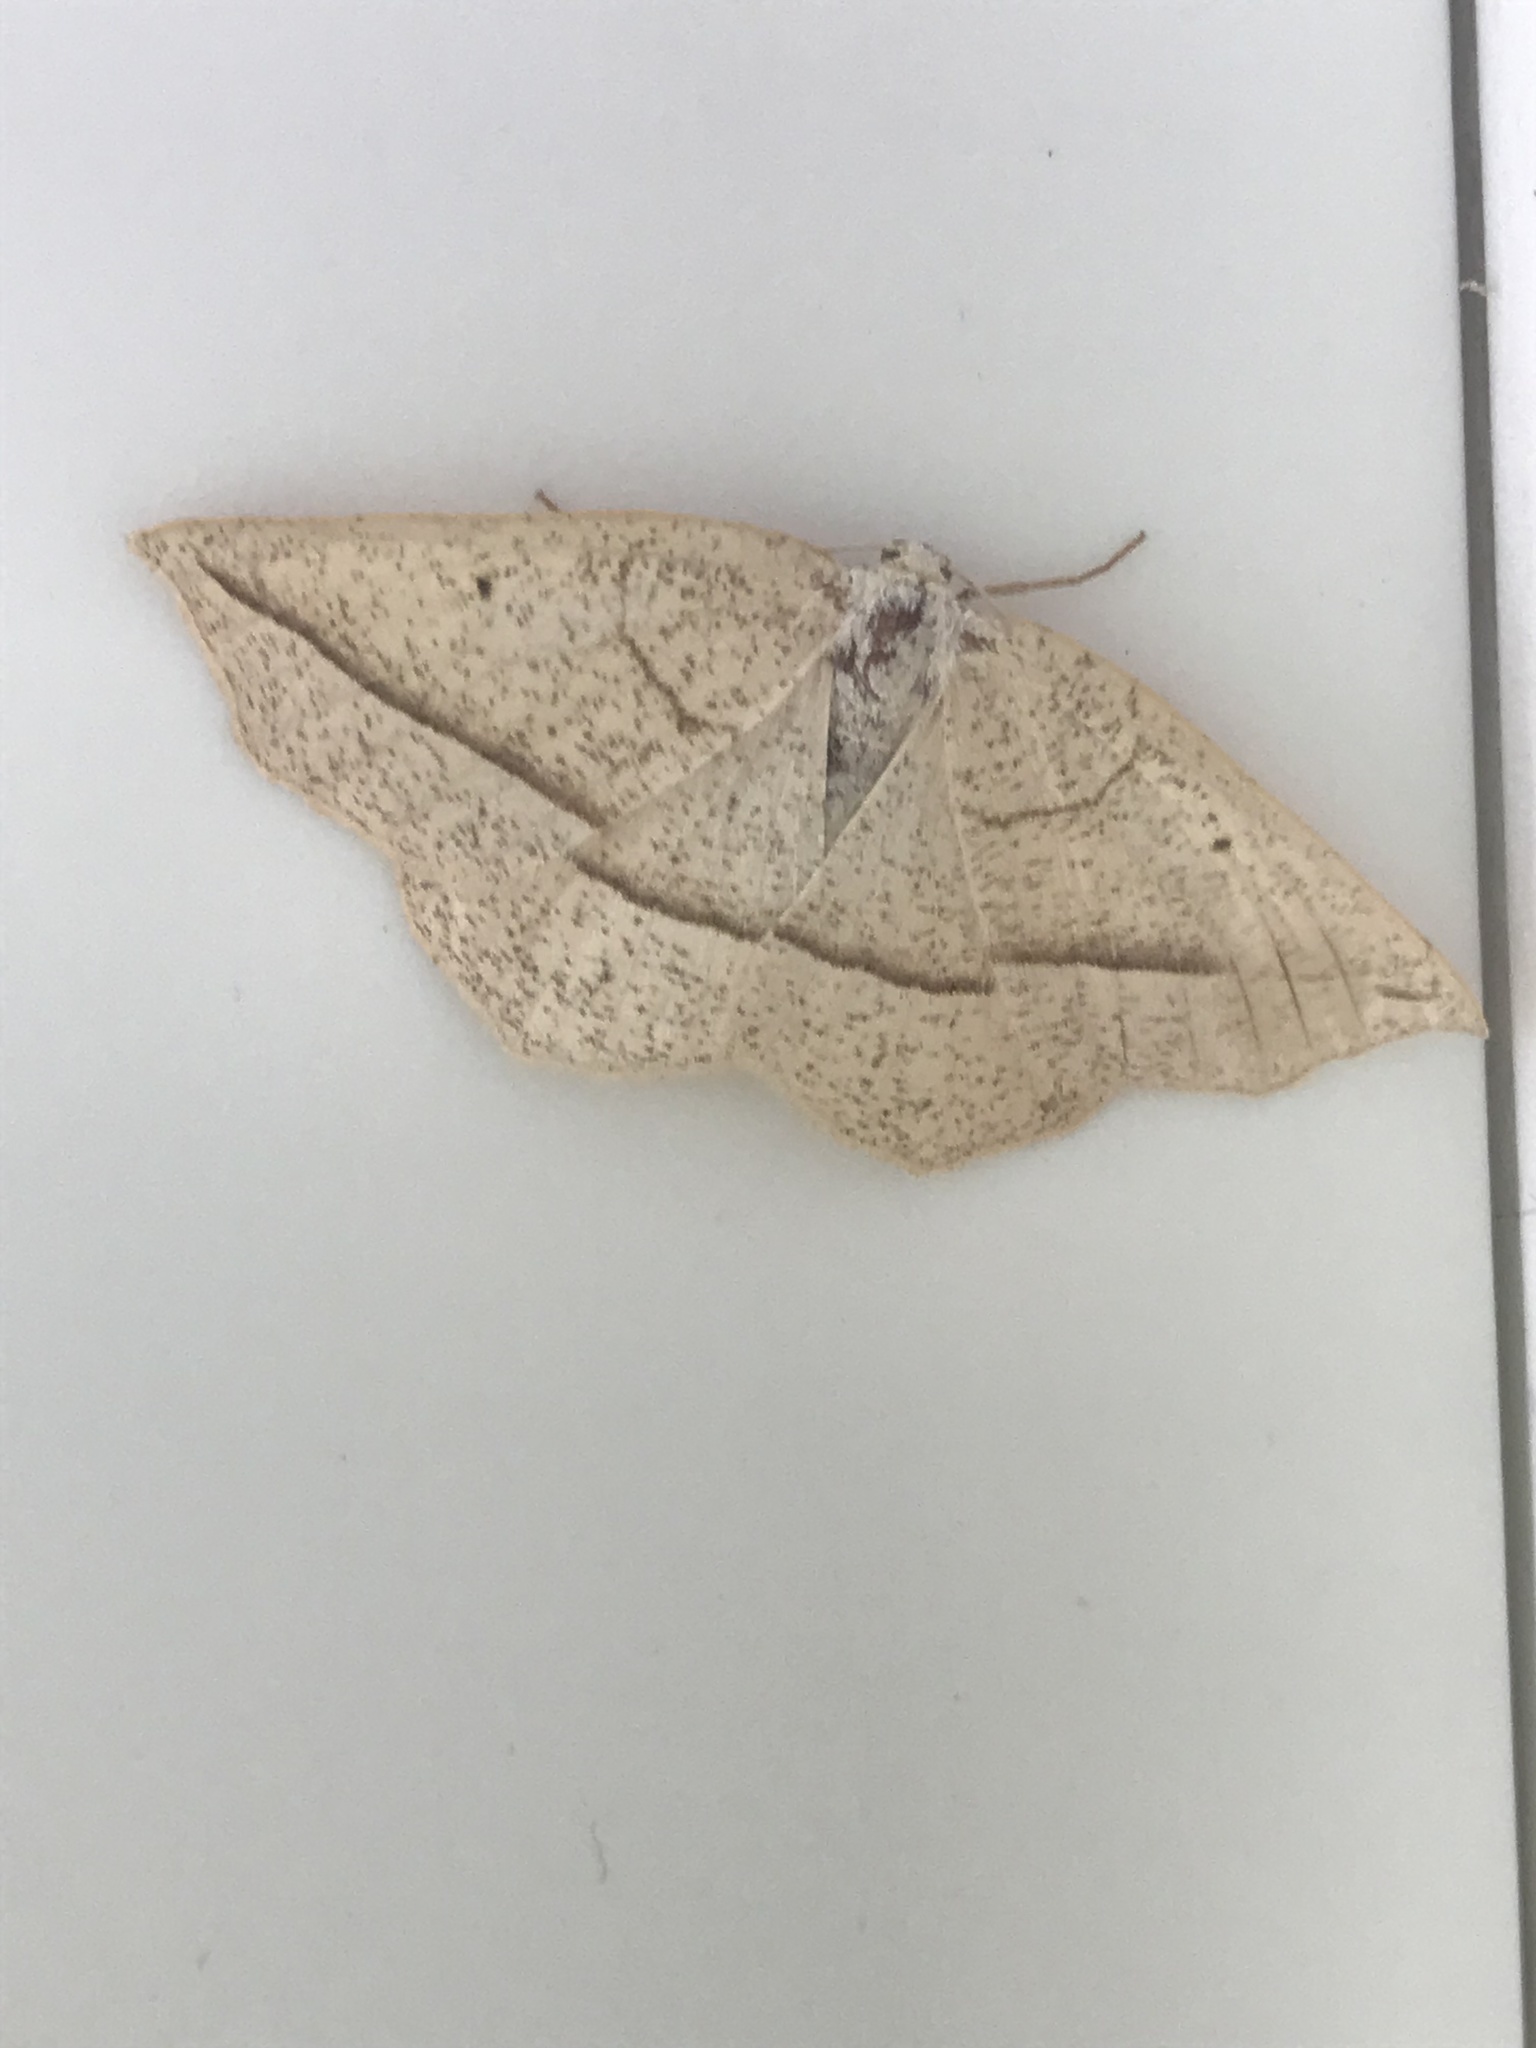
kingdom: Animalia
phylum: Arthropoda
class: Insecta
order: Lepidoptera
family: Geometridae
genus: Eusarca
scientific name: Eusarca confusaria
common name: Confused eusarca
